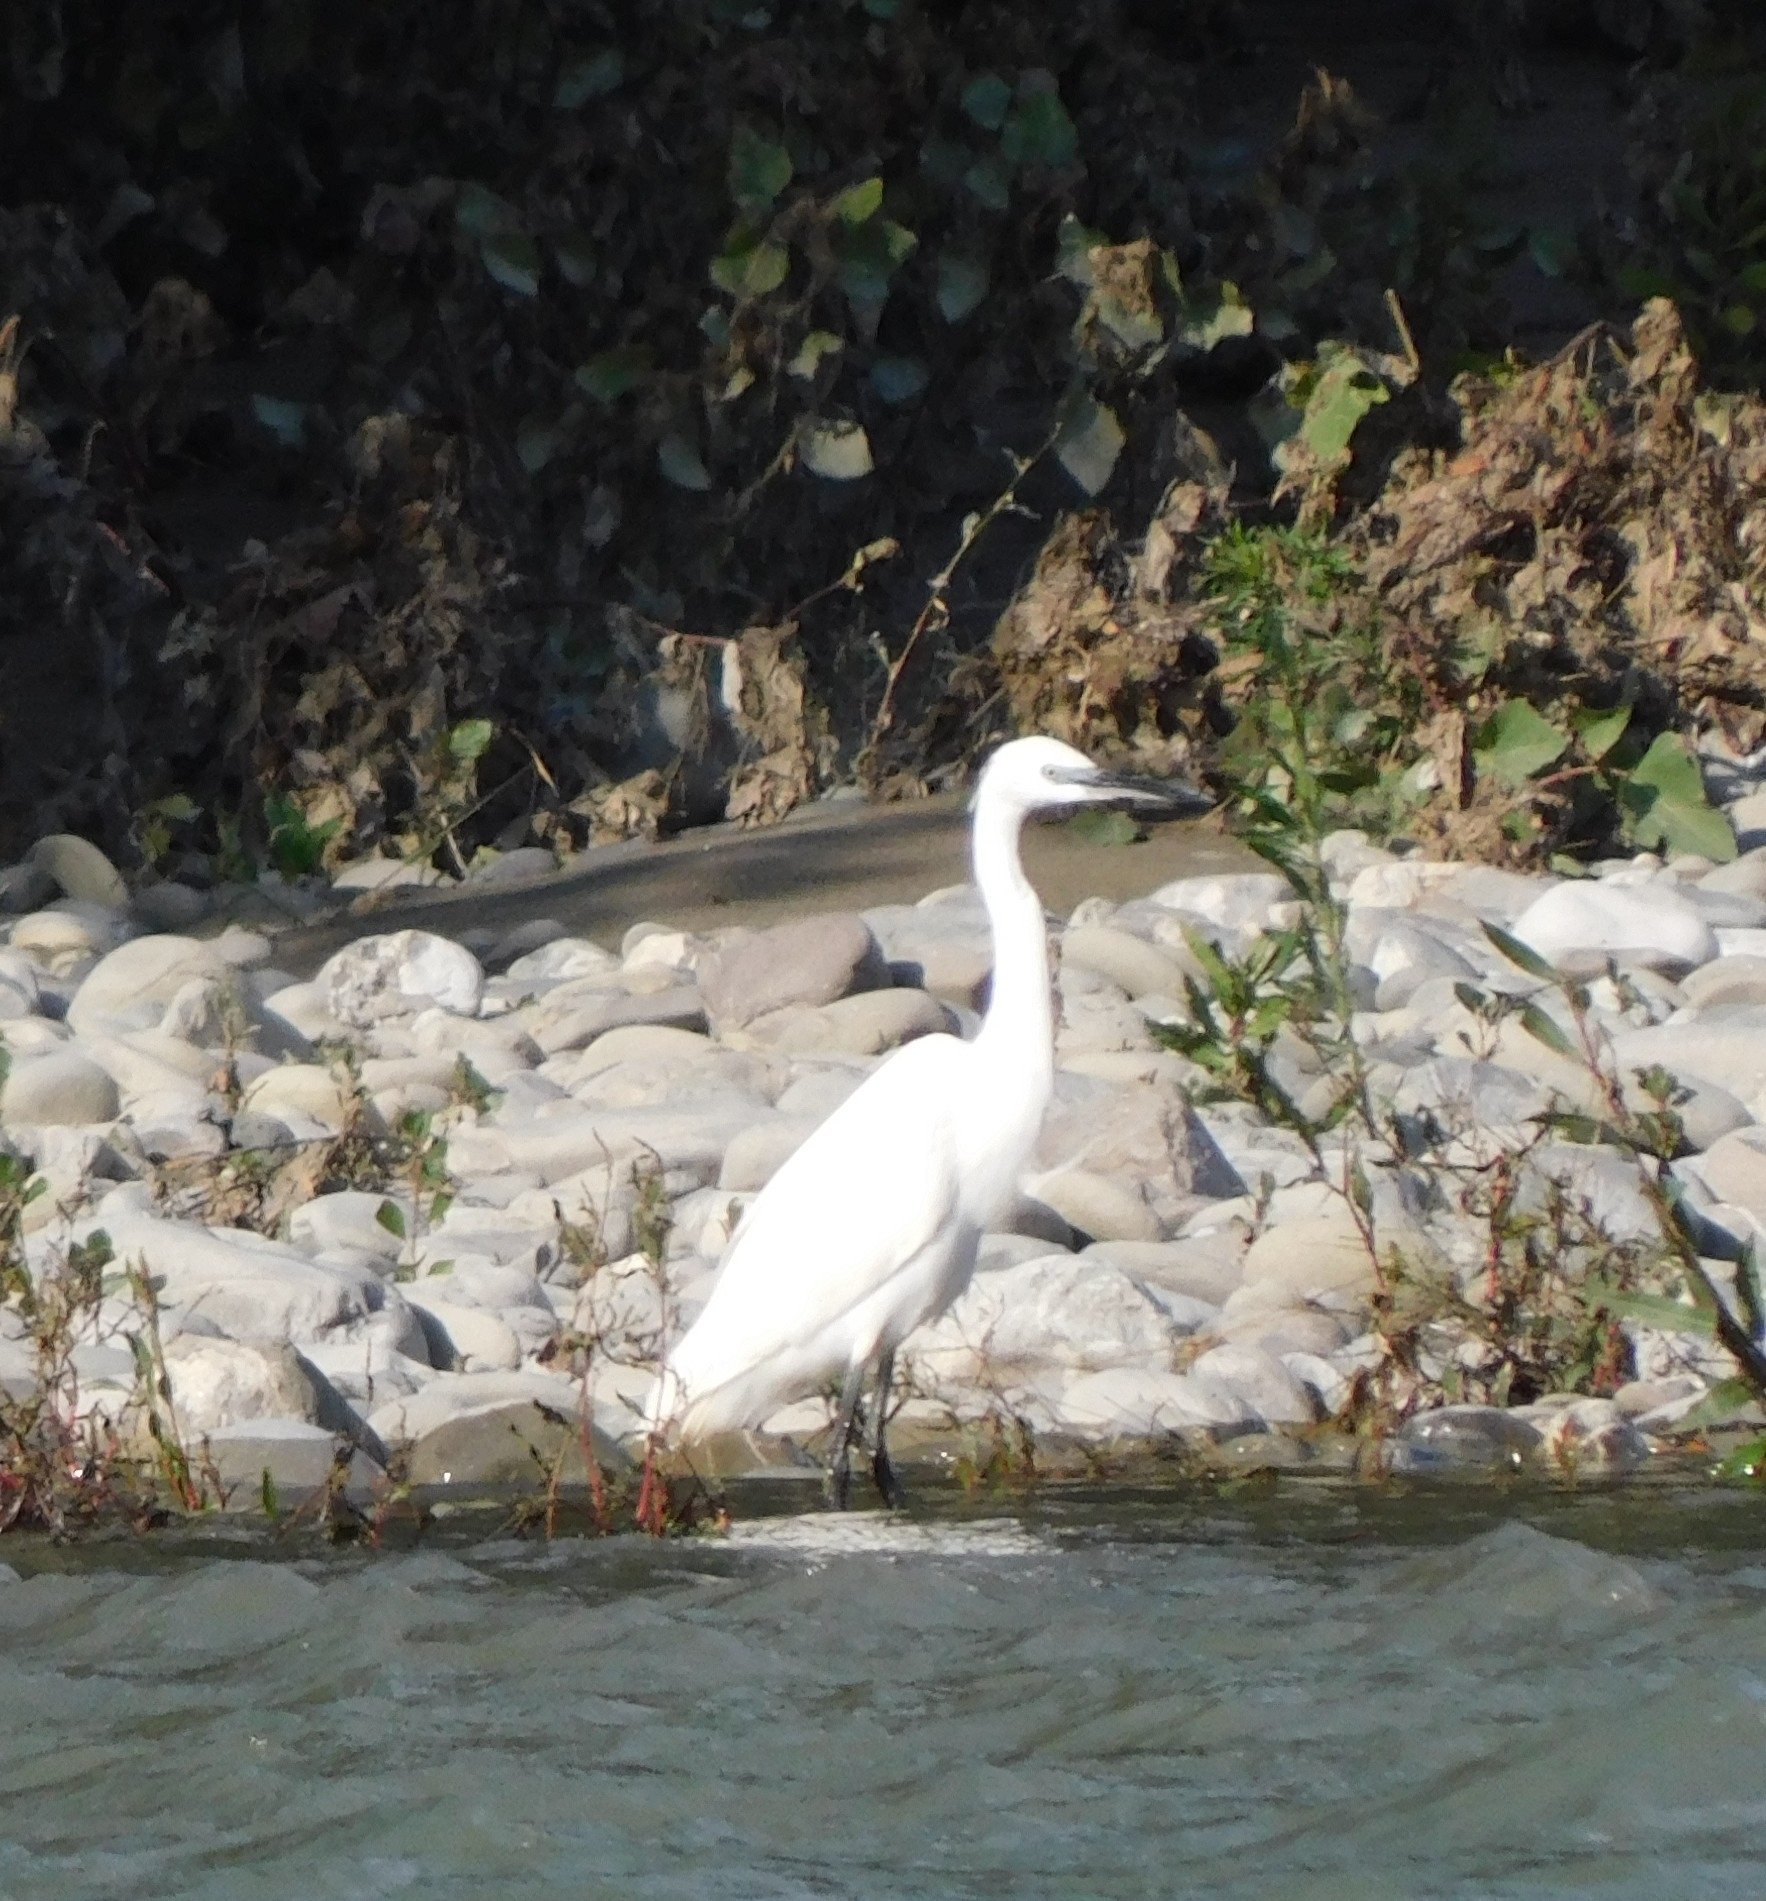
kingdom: Animalia
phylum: Chordata
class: Aves
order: Pelecaniformes
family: Ardeidae
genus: Egretta
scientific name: Egretta garzetta
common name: Little egret
